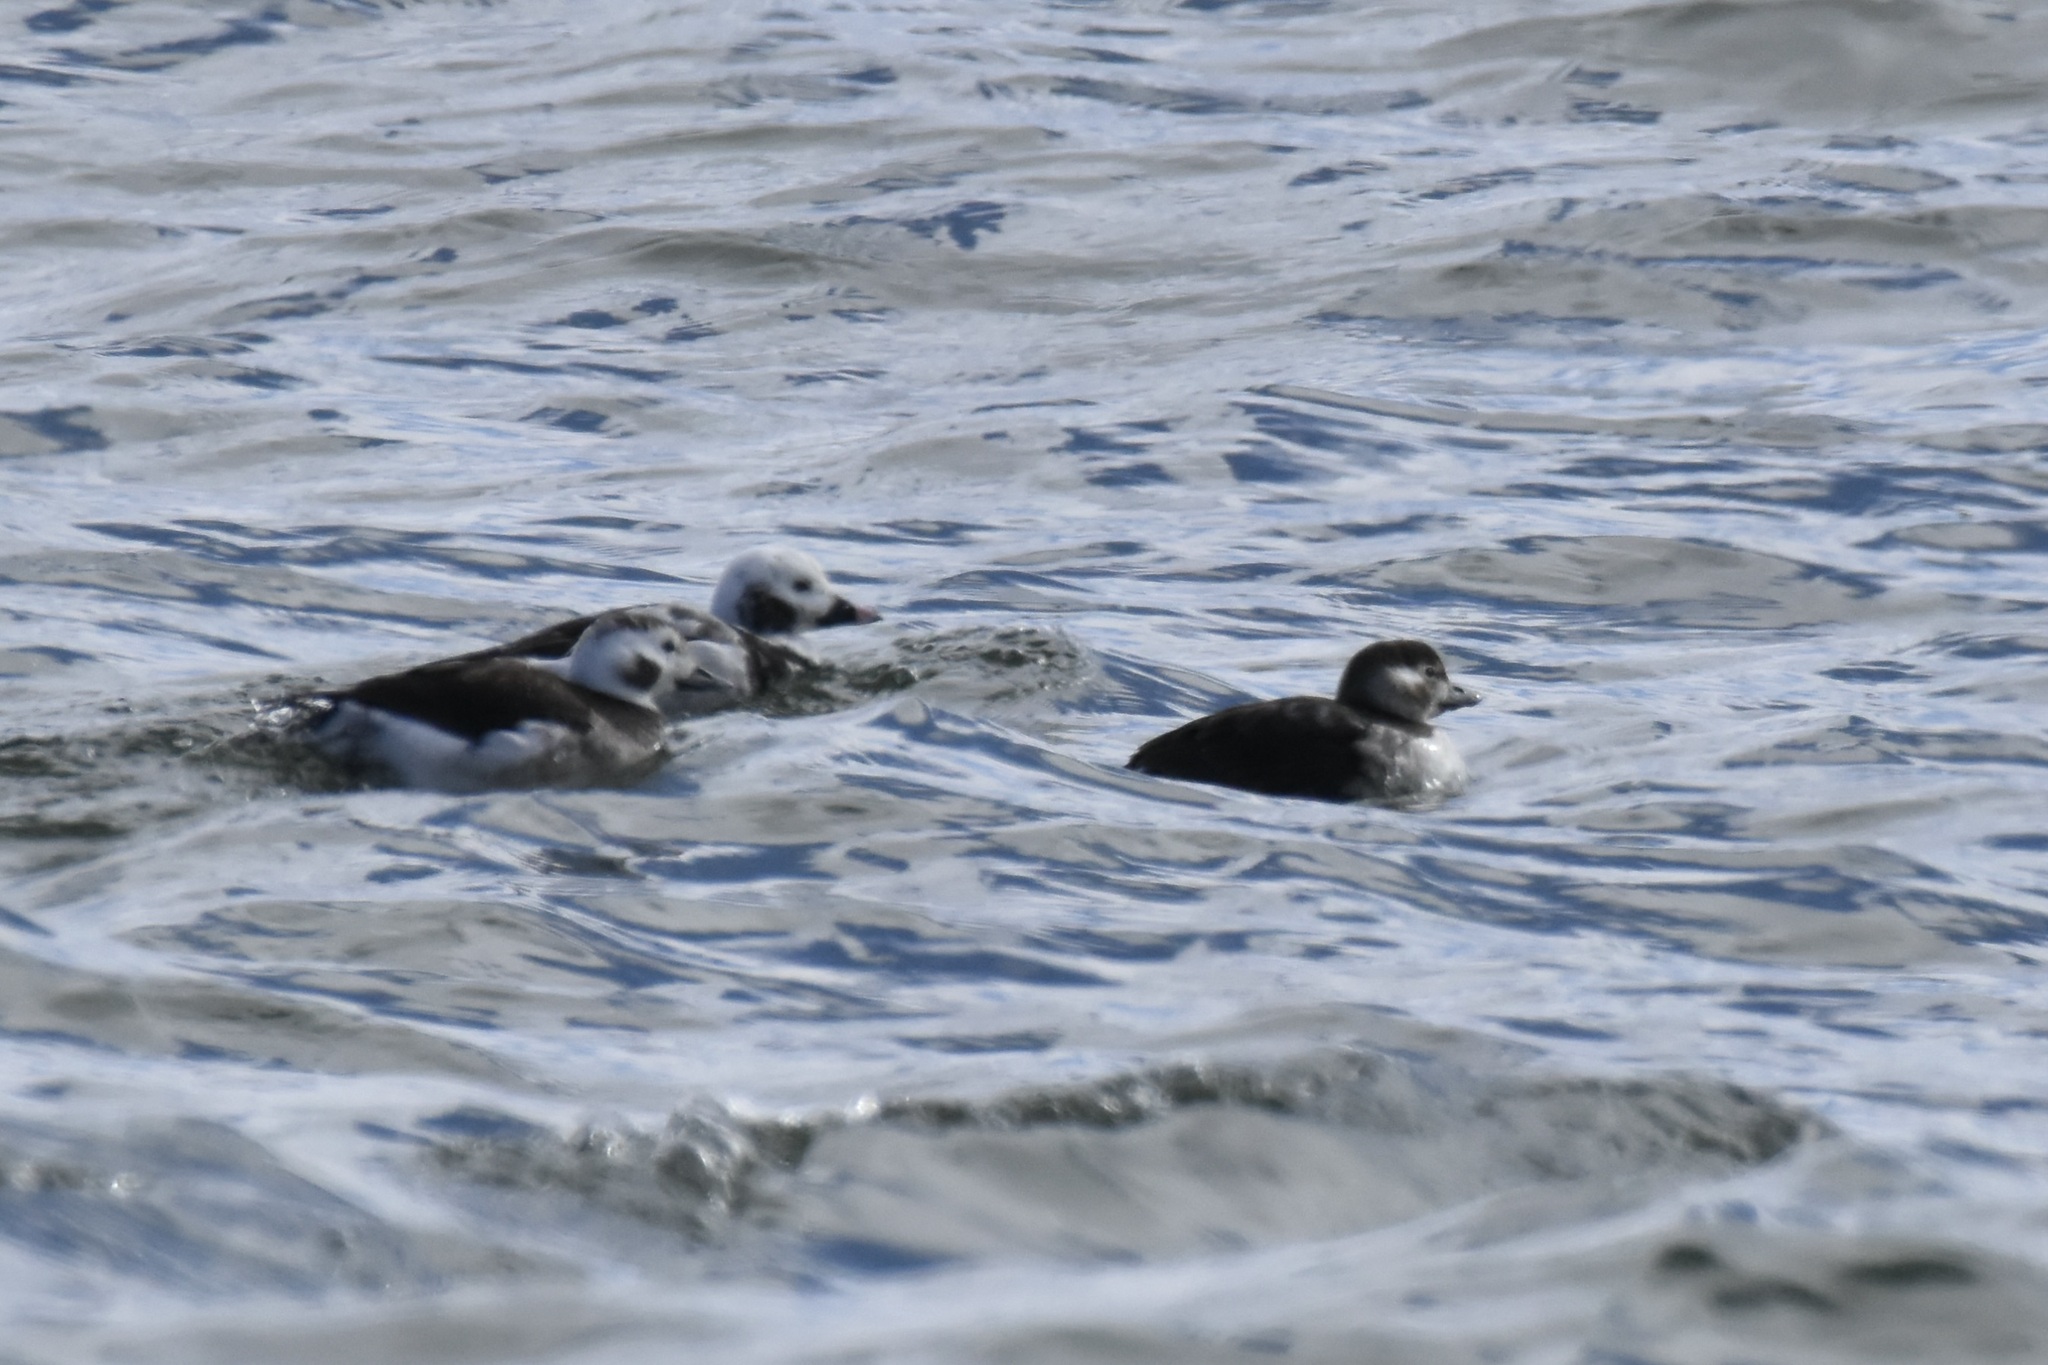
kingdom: Animalia
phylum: Chordata
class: Aves
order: Anseriformes
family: Anatidae
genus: Clangula
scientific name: Clangula hyemalis
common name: Long-tailed duck
